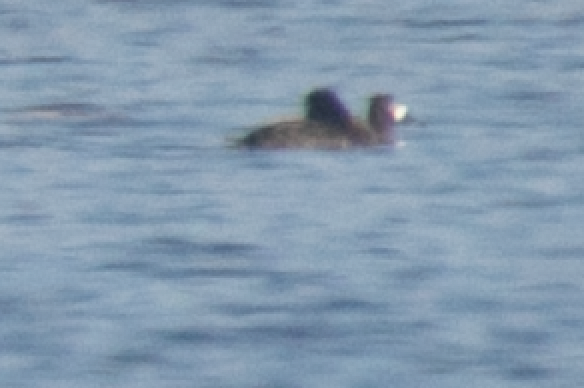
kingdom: Animalia
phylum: Chordata
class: Aves
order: Anseriformes
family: Anatidae
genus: Aythya
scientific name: Aythya fuligula
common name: Tufted duck
